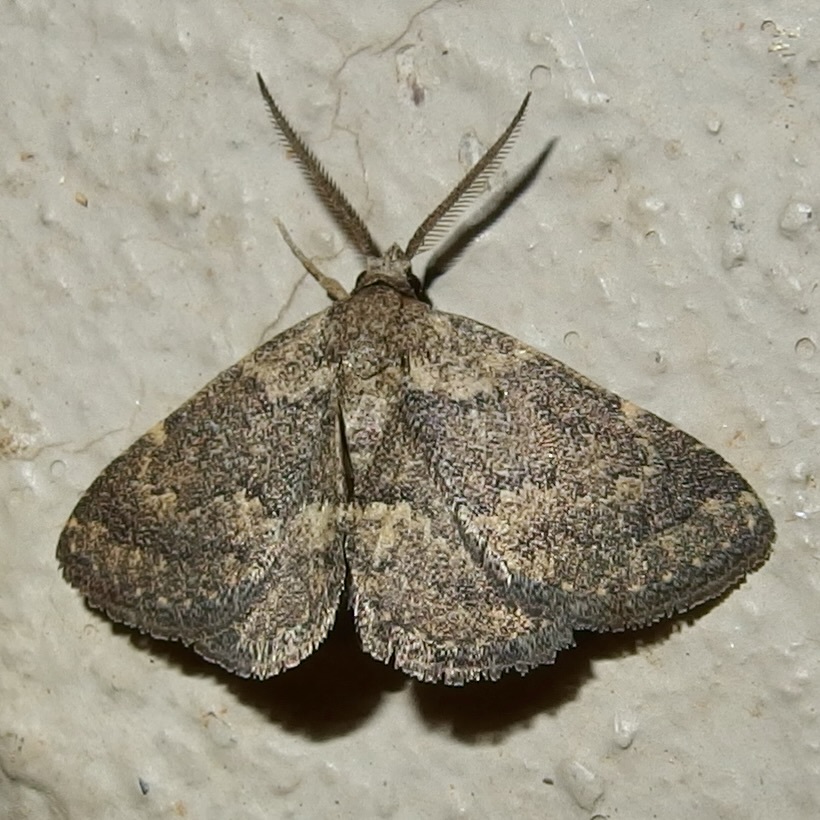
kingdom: Animalia
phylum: Arthropoda
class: Insecta
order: Lepidoptera
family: Erebidae
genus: Prosoparia
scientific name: Prosoparia perfuscaria
